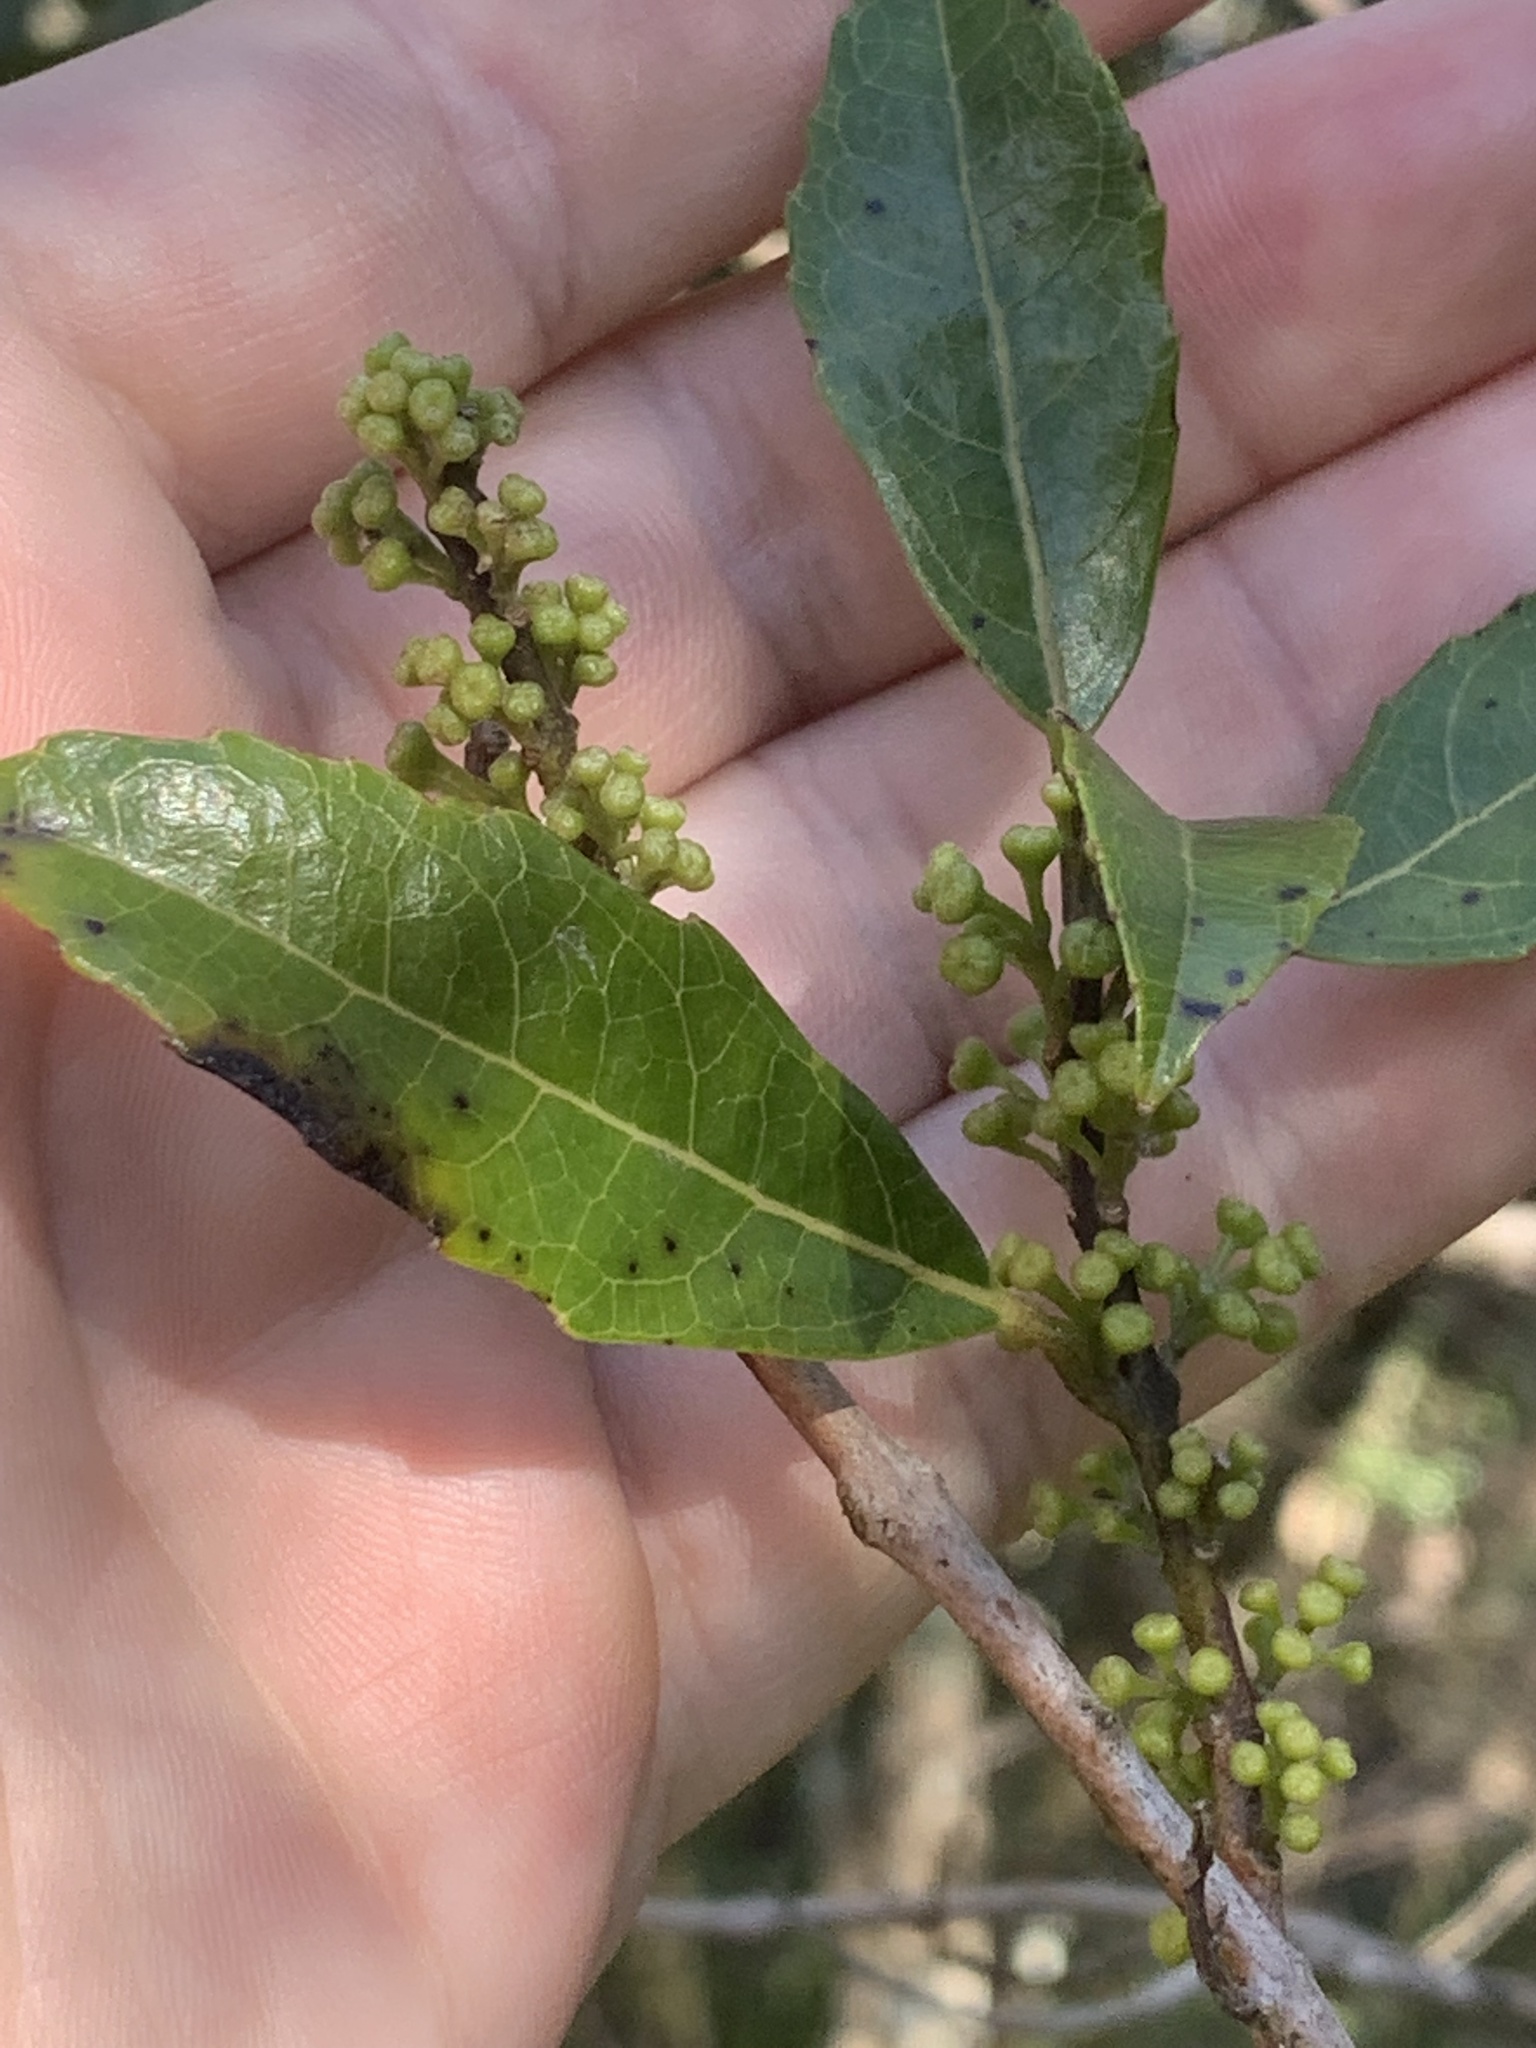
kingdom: Plantae
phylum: Tracheophyta
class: Magnoliopsida
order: Ericales
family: Primulaceae
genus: Myrsine
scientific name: Myrsine variabilis
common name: Brush muttonwood
